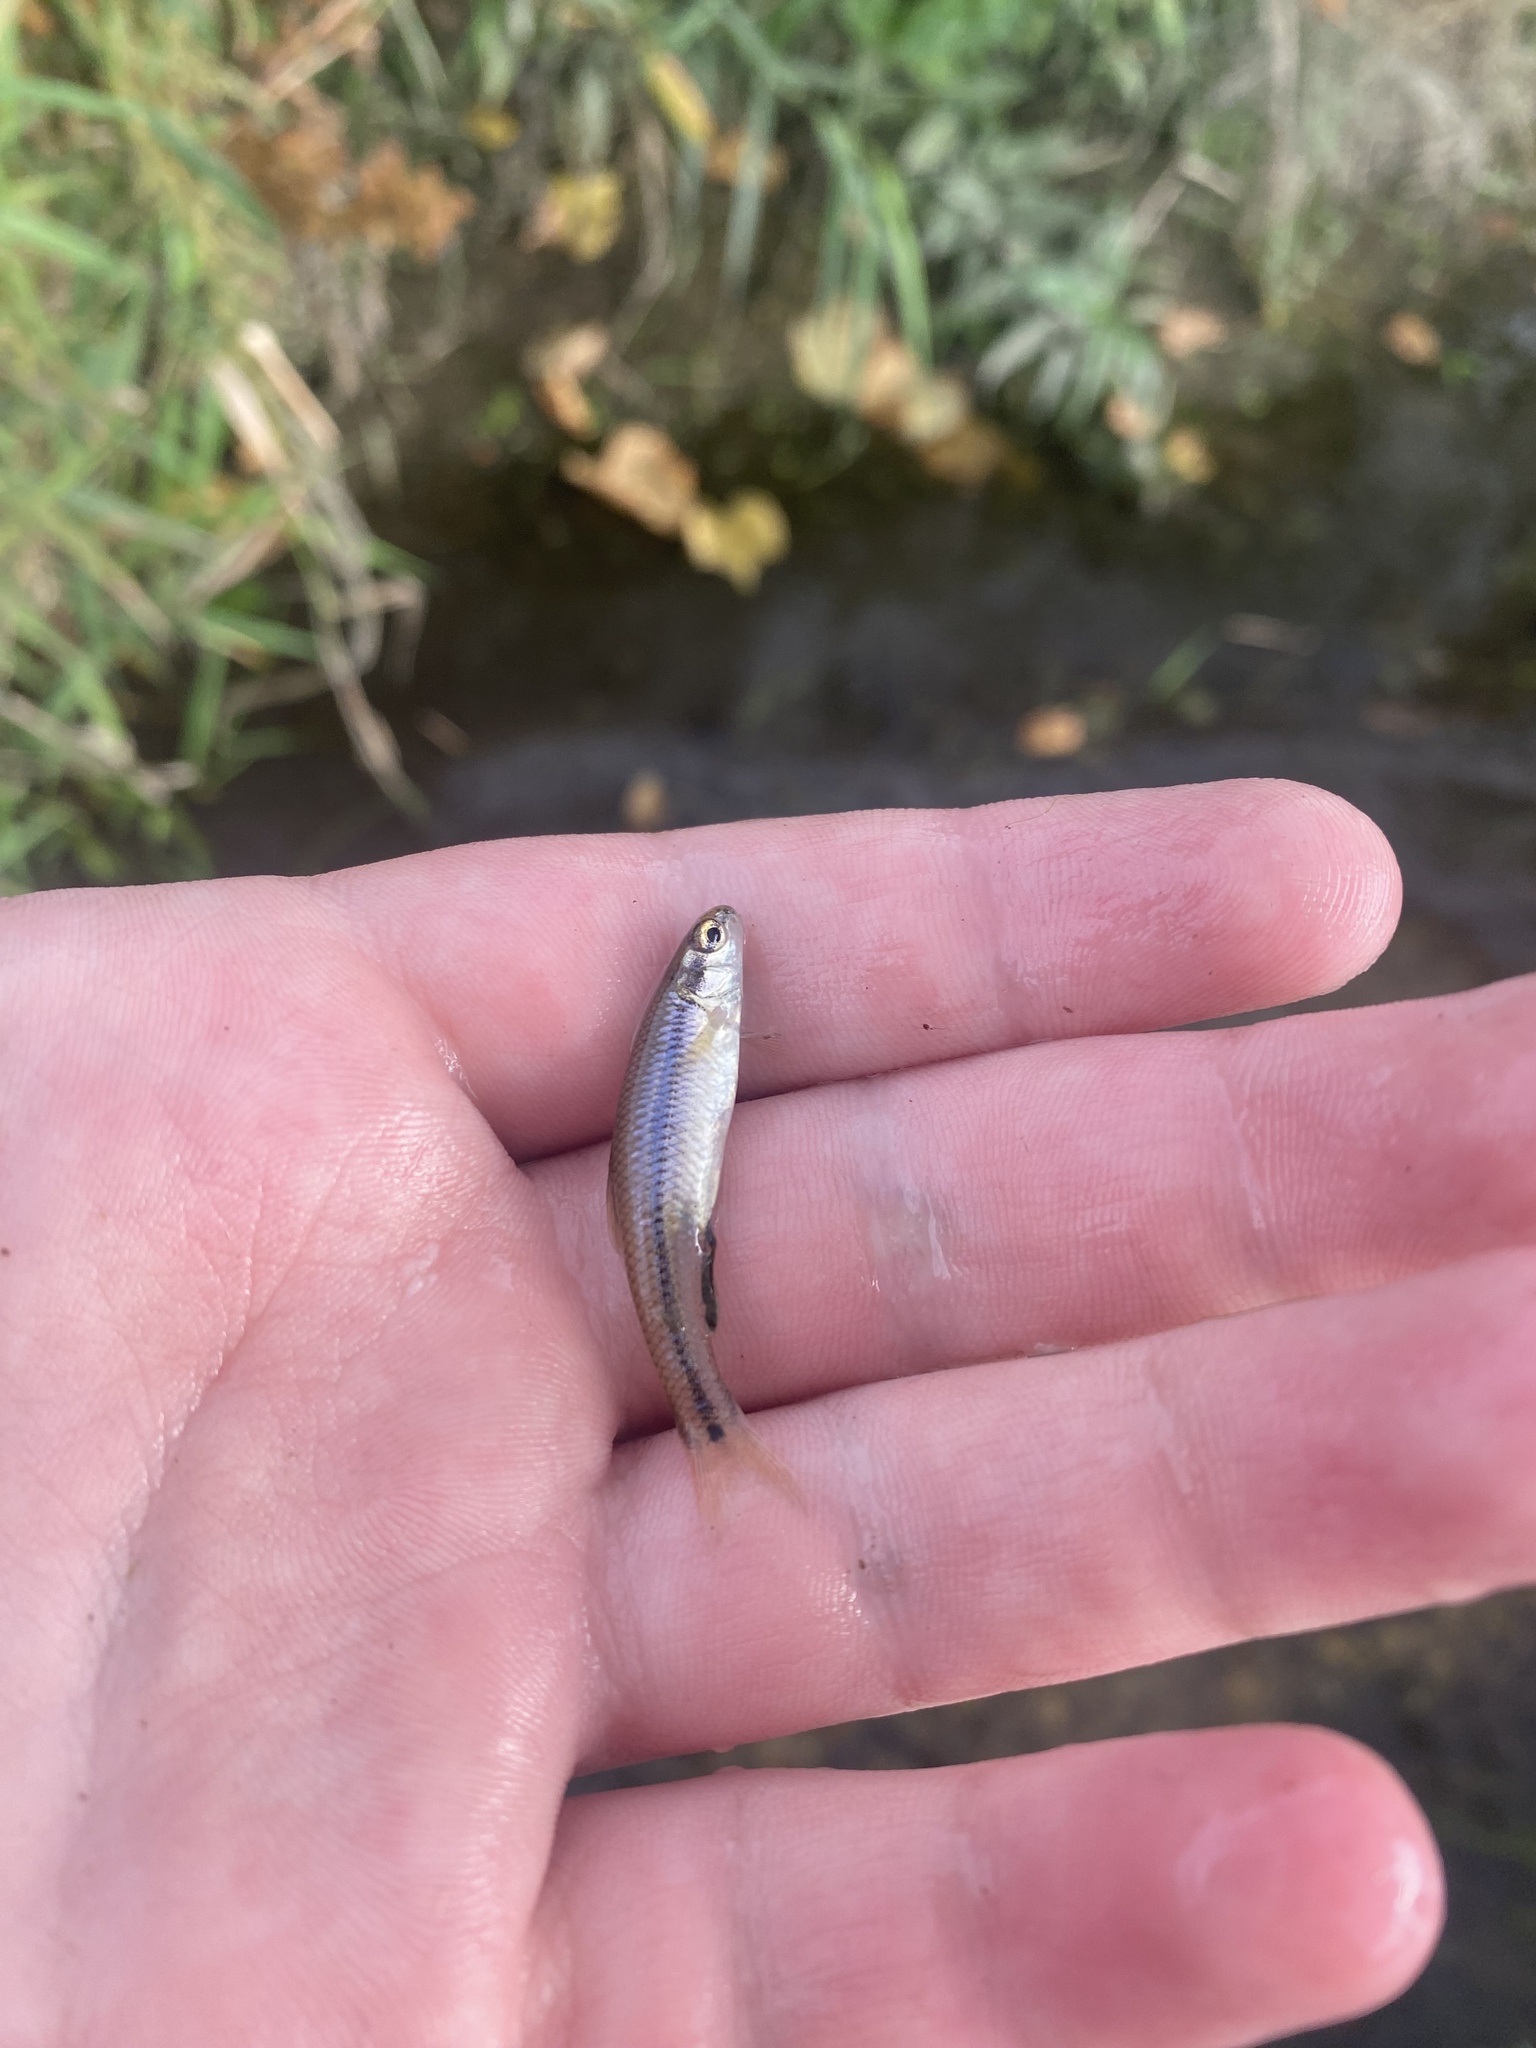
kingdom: Animalia
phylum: Chordata
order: Cypriniformes
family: Cyprinidae
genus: Pimephales
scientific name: Pimephales notatus
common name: Bluntnose minnow
